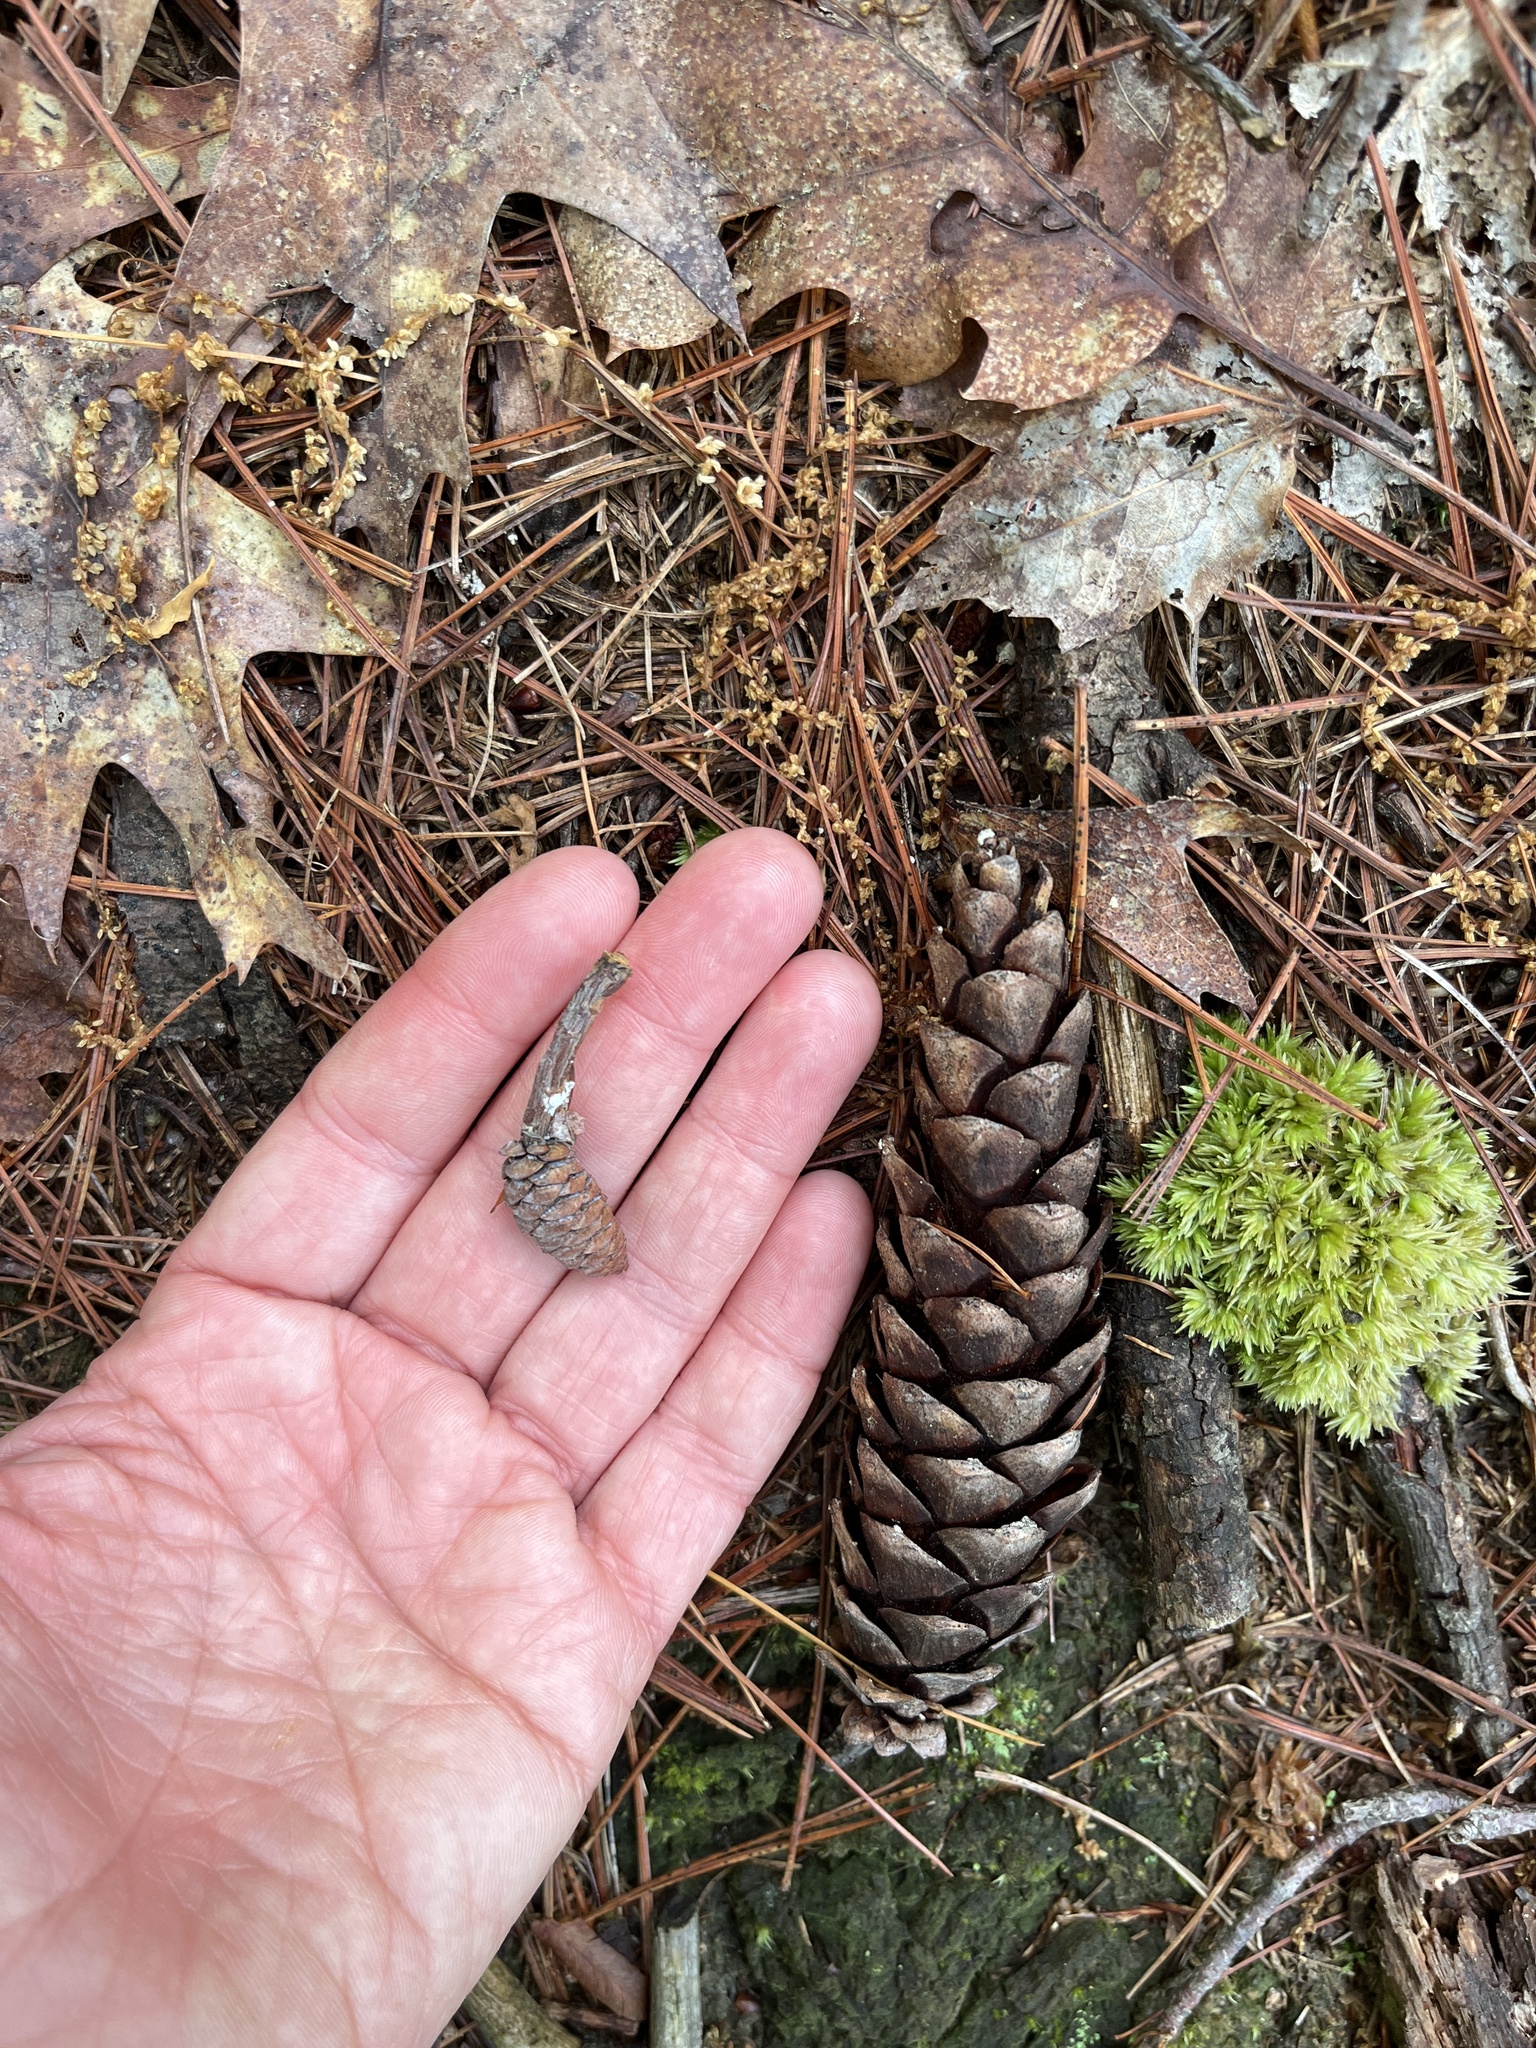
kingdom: Plantae
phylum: Tracheophyta
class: Pinopsida
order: Pinales
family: Pinaceae
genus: Pinus
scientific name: Pinus strobus
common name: Weymouth pine
